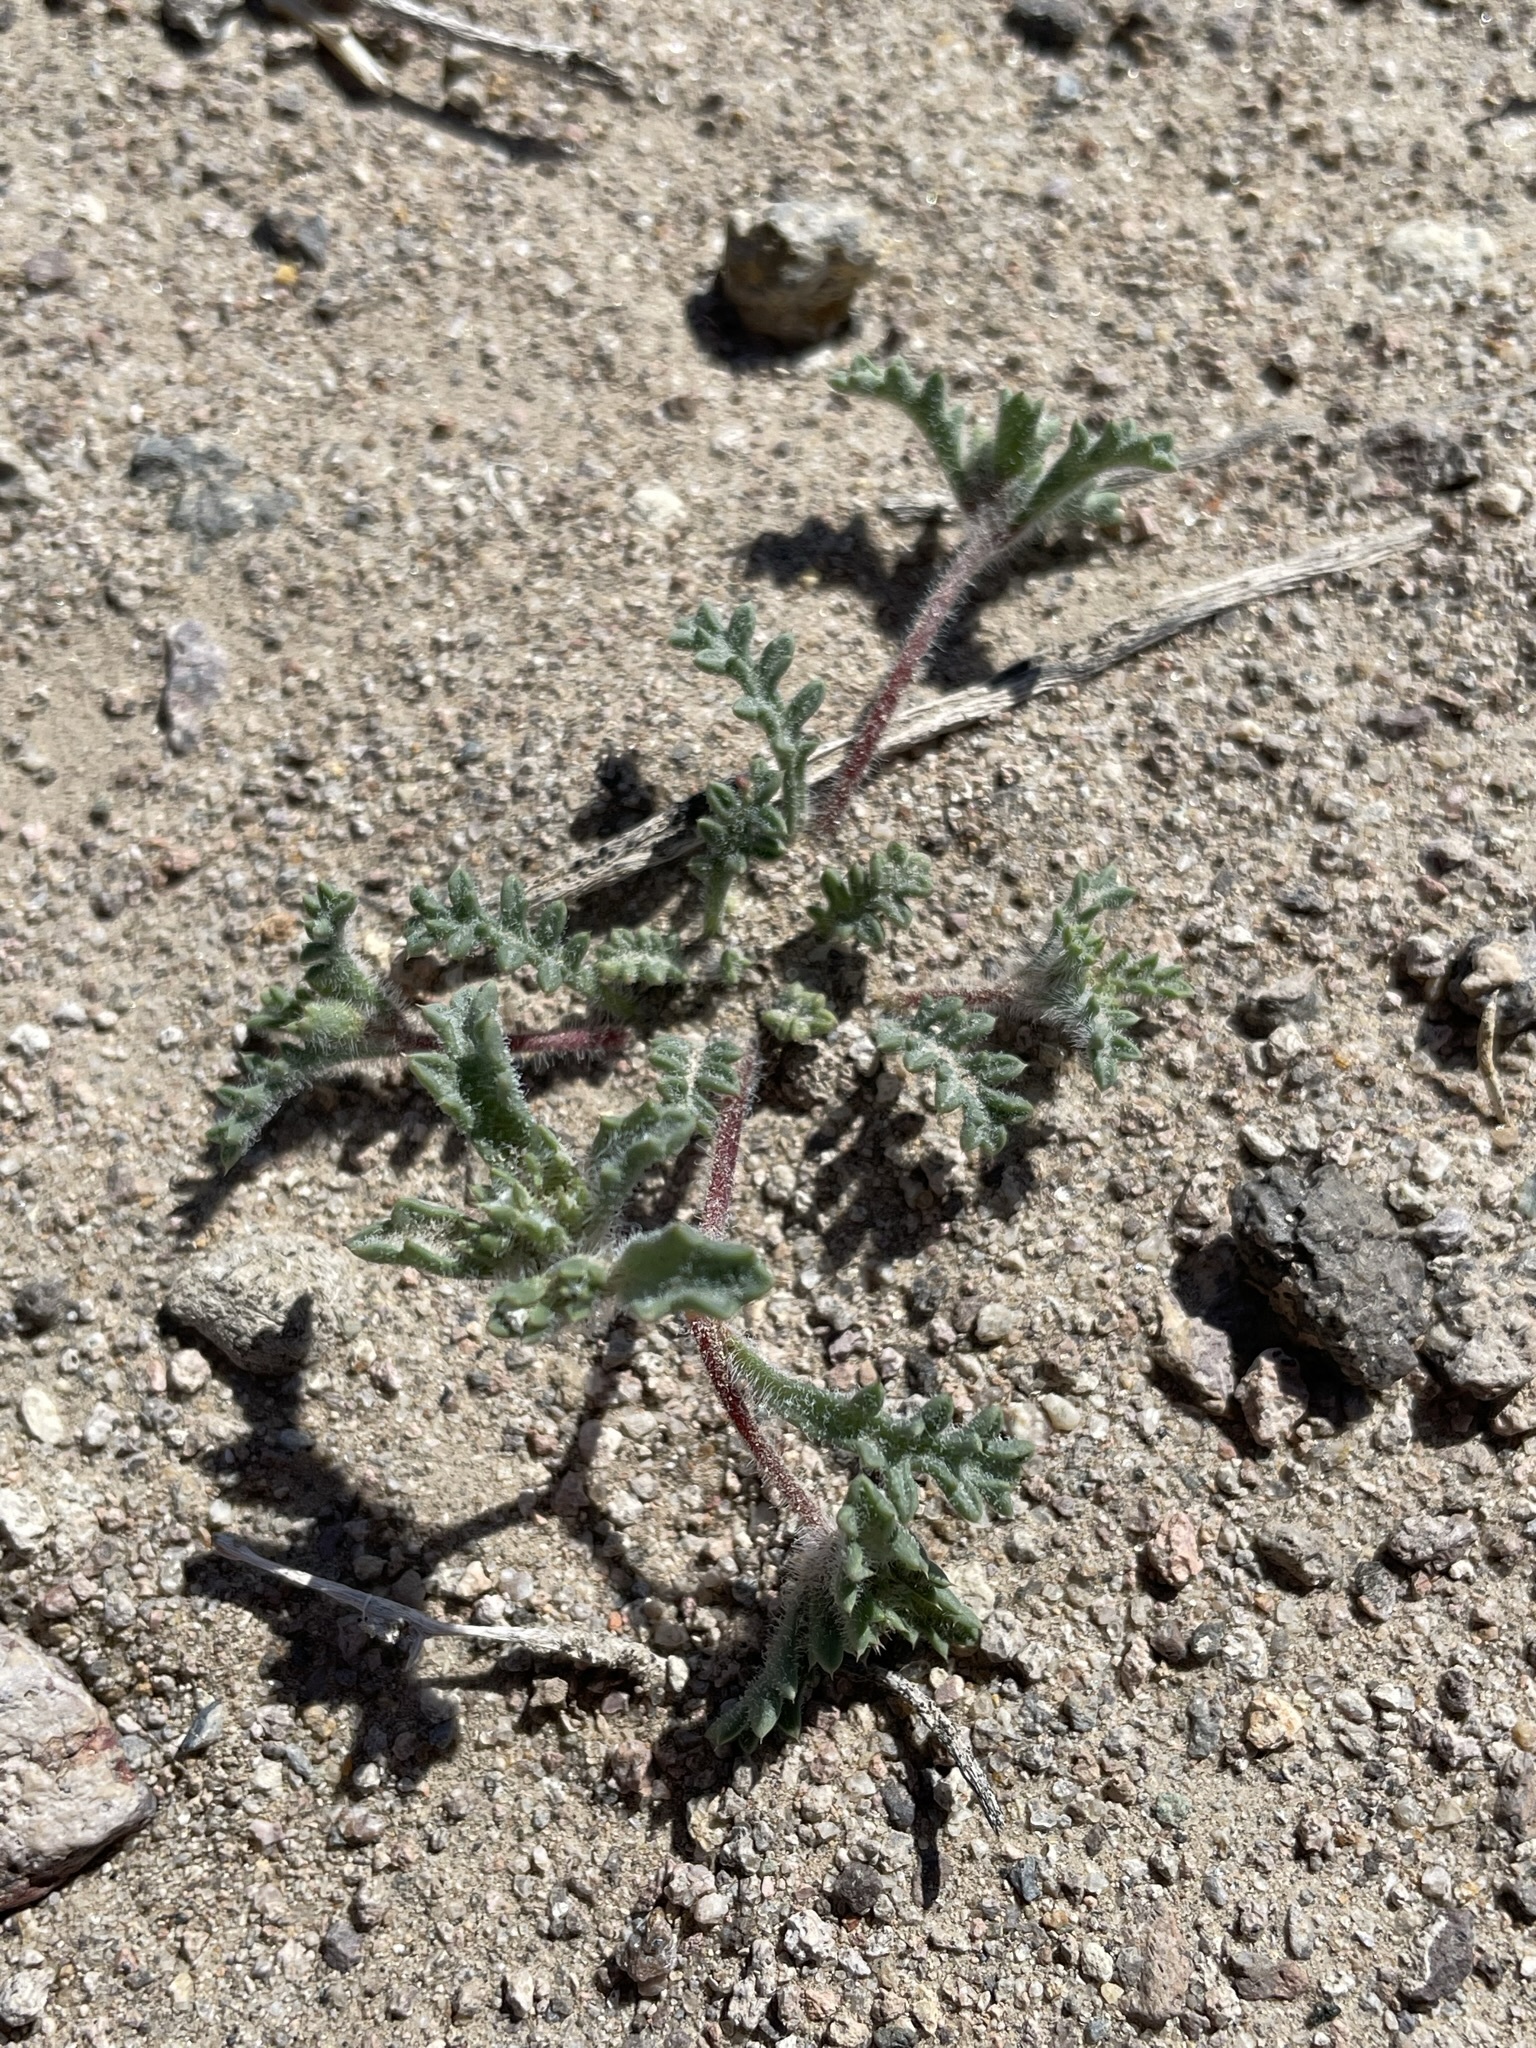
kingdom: Plantae
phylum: Tracheophyta
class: Magnoliopsida
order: Ericales
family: Polemoniaceae
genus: Ipomopsis
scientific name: Ipomopsis polycladon
